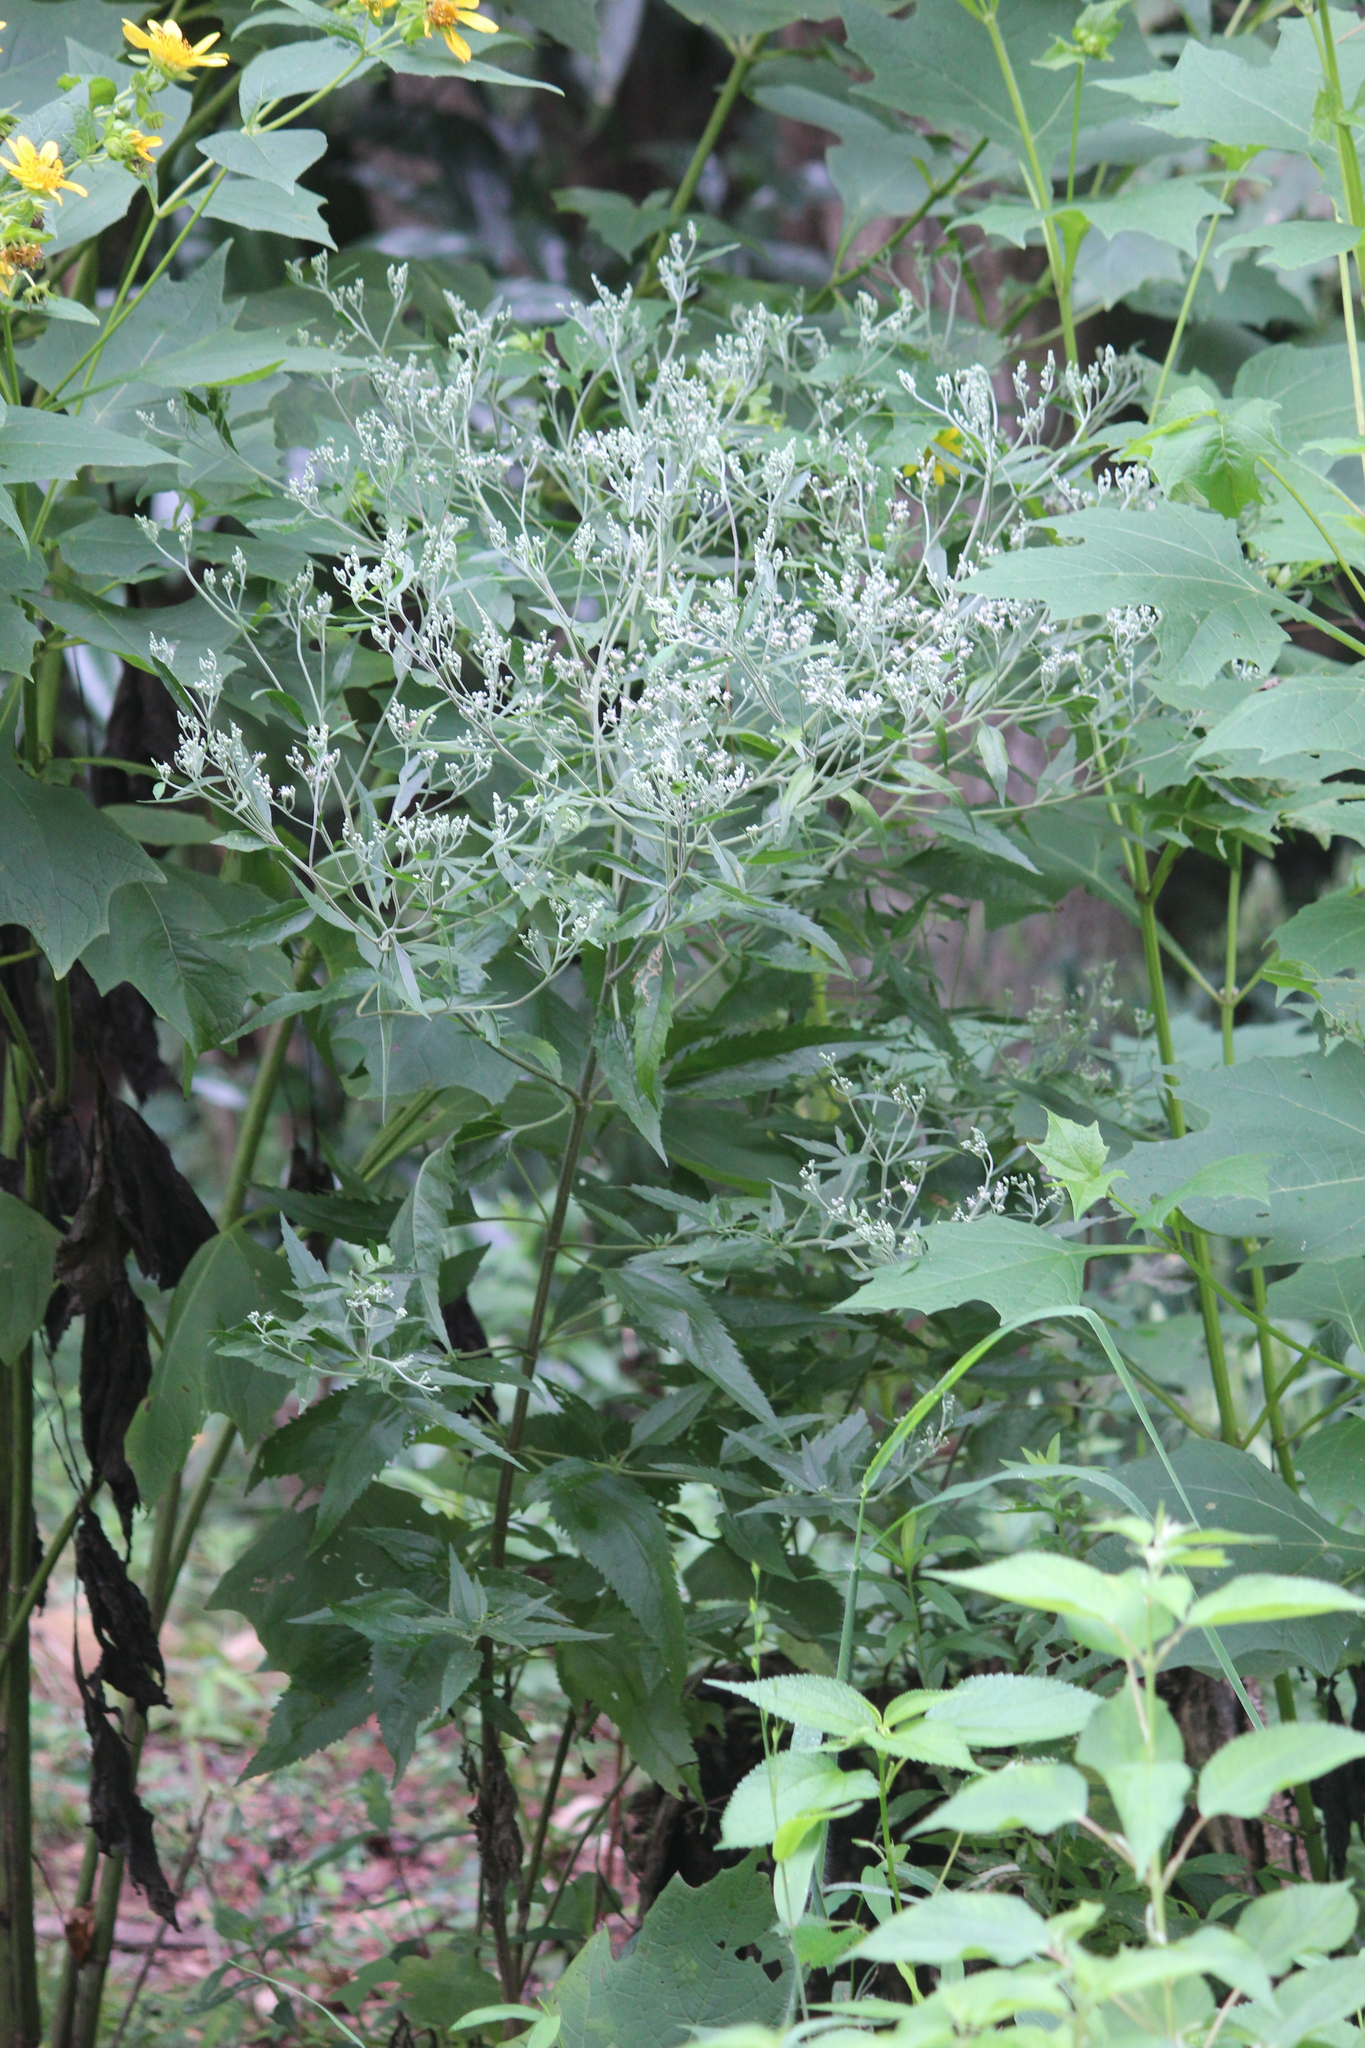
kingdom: Plantae
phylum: Tracheophyta
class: Magnoliopsida
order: Asterales
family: Asteraceae
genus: Eupatorium
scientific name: Eupatorium serotinum
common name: Late boneset
